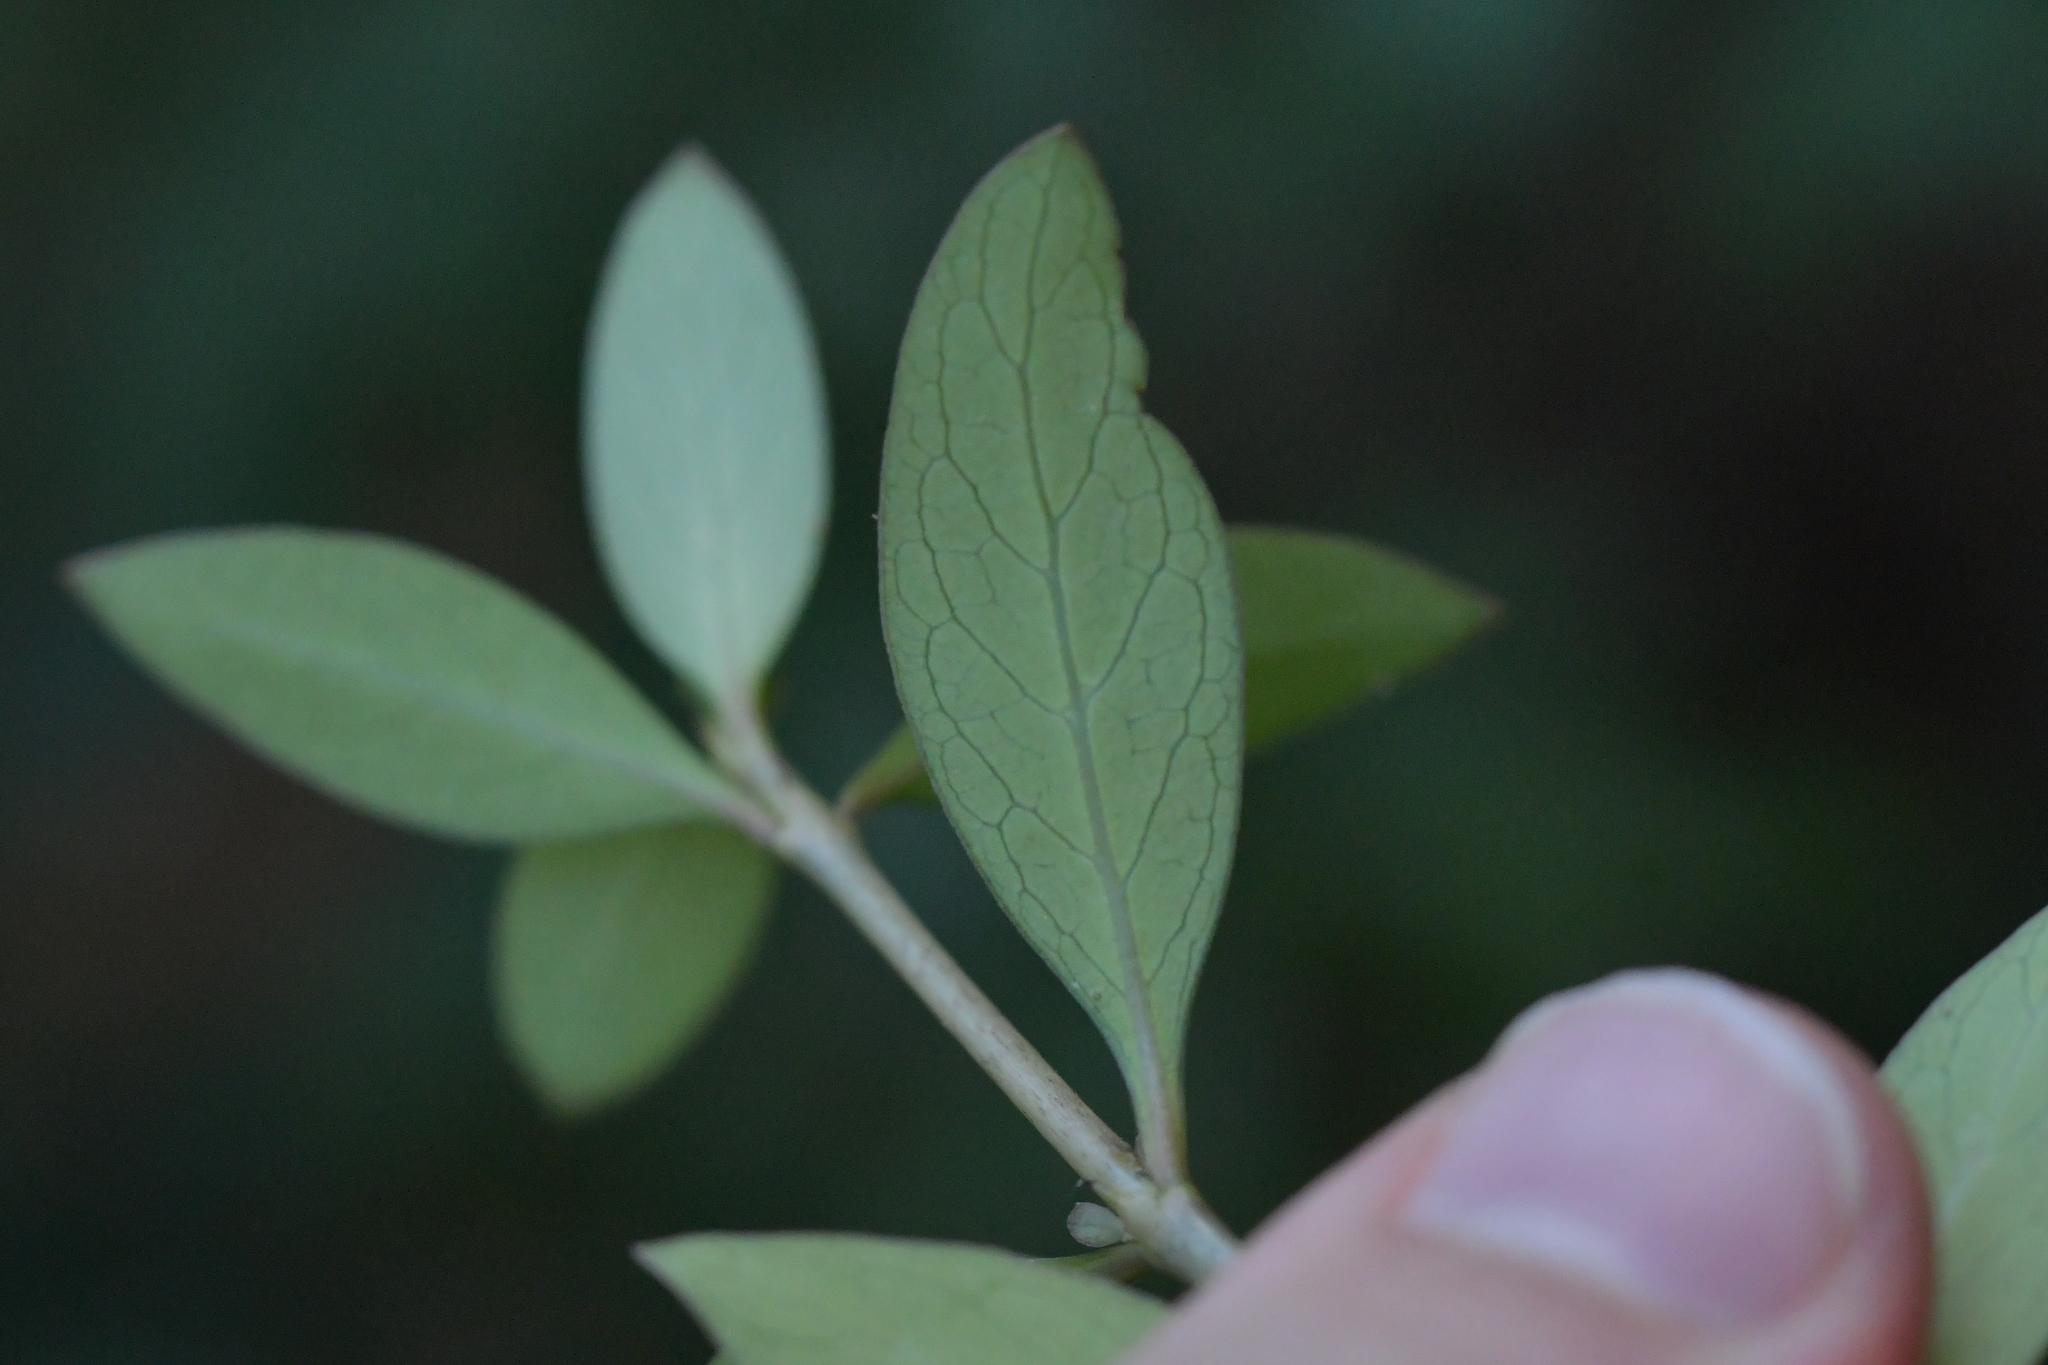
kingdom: Plantae
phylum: Tracheophyta
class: Magnoliopsida
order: Gentianales
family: Rubiaceae
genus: Coprosma
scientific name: Coprosma cunninghamii
